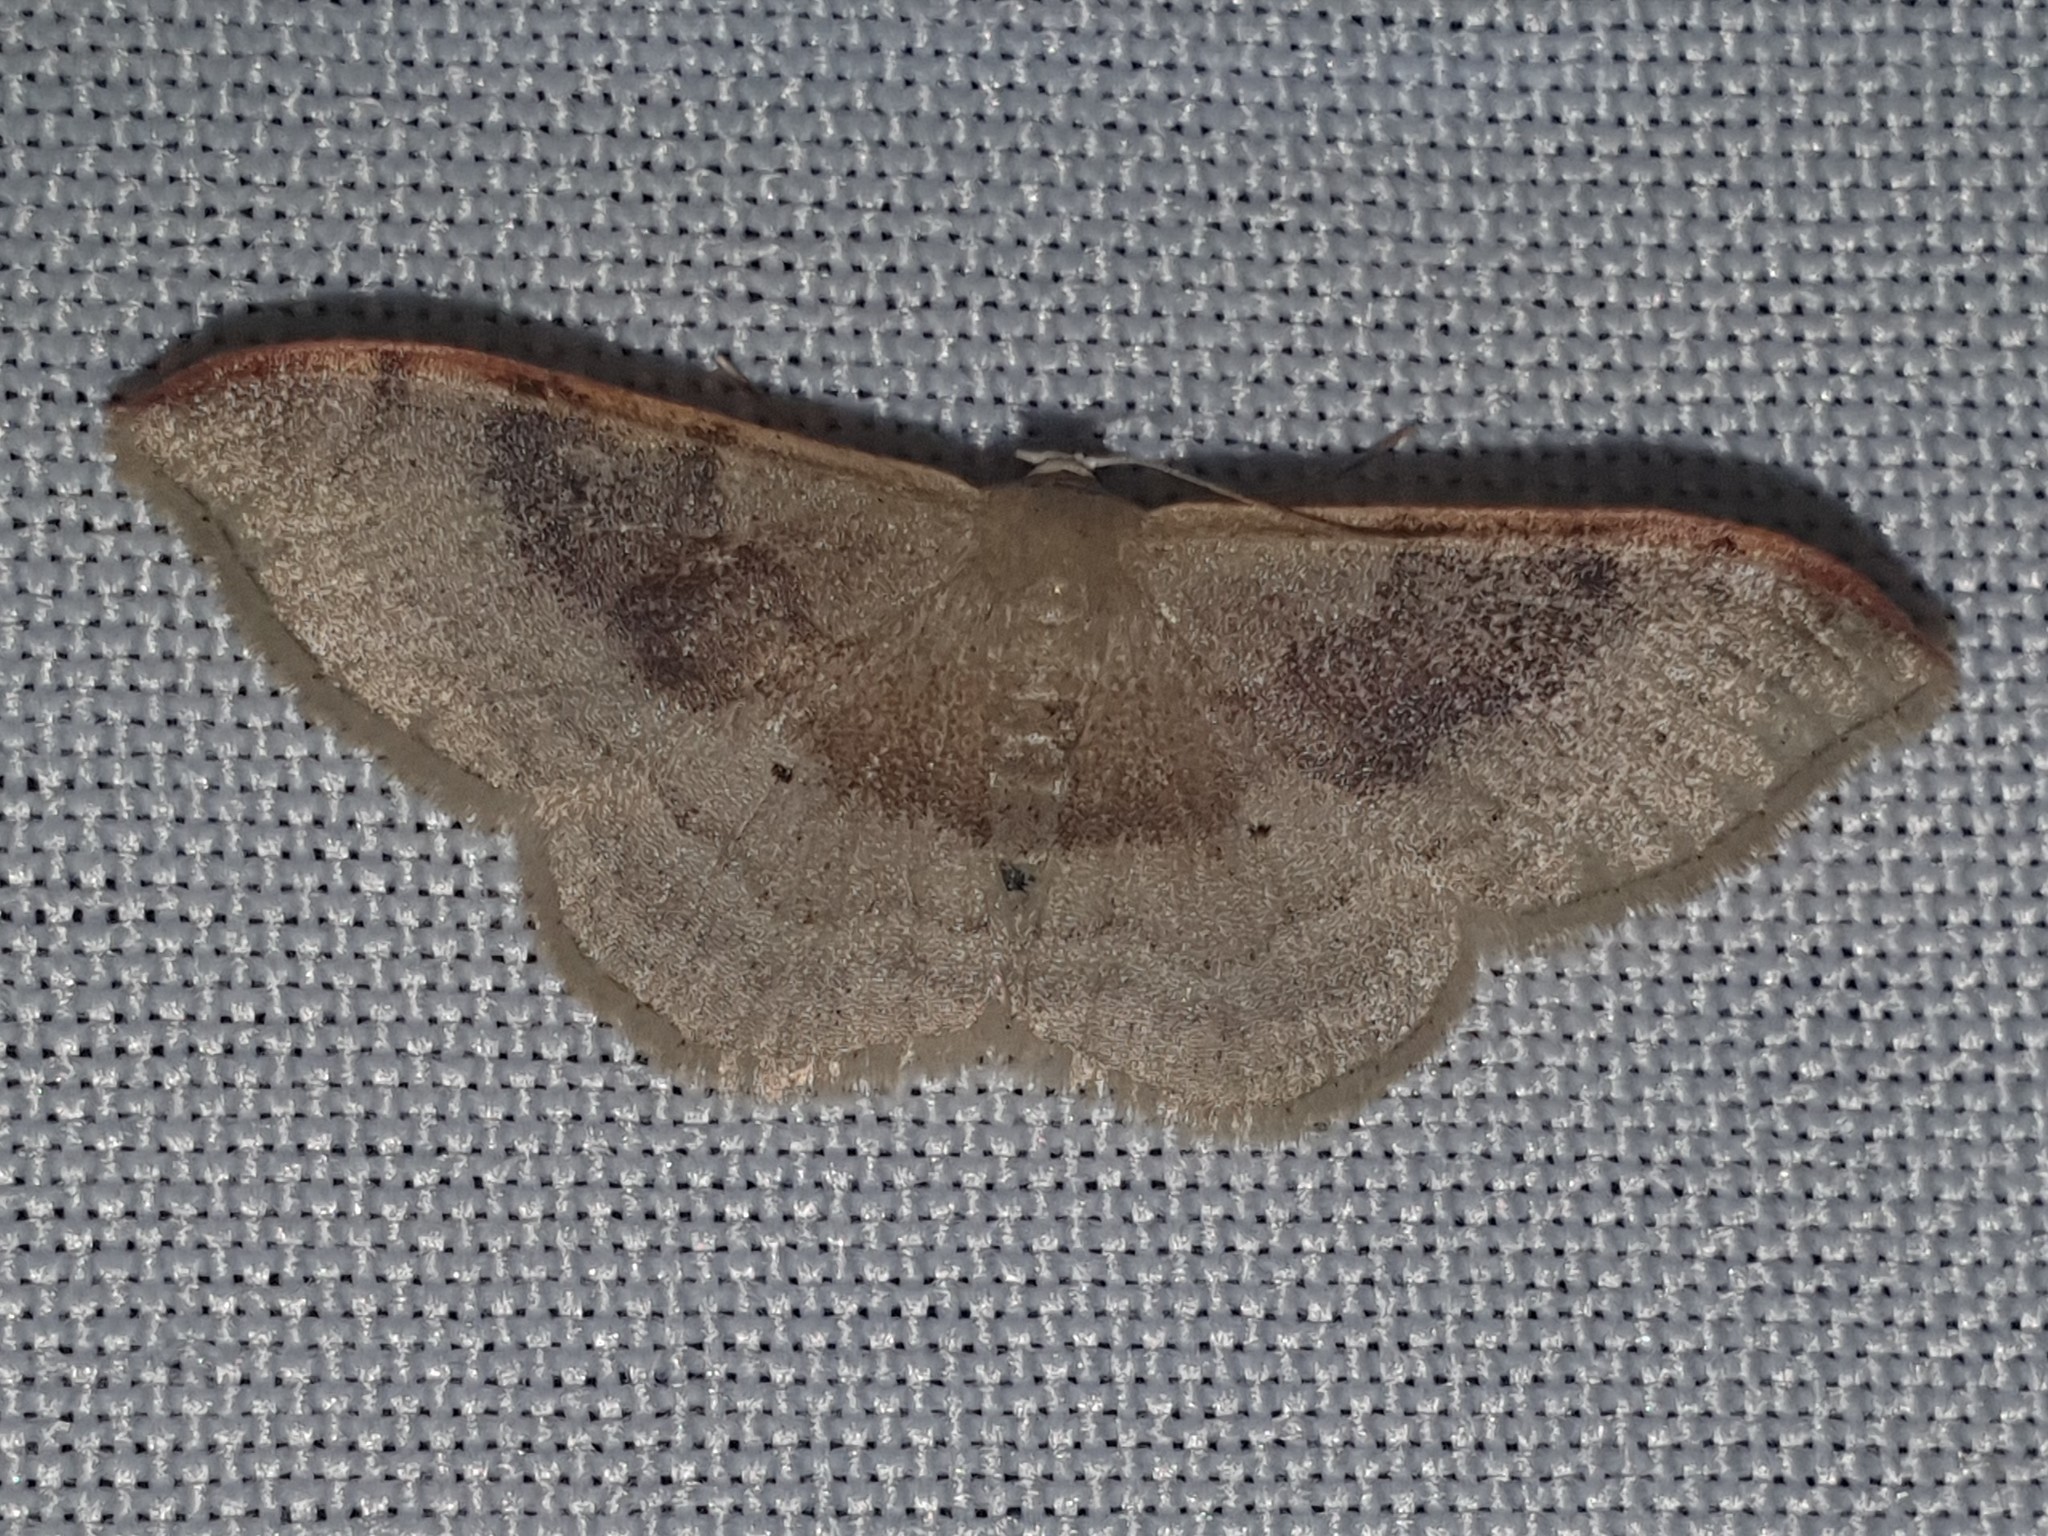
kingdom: Animalia
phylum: Arthropoda
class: Insecta
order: Lepidoptera
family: Geometridae
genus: Idaea
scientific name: Idaea degeneraria
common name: Portland ribbon wave
